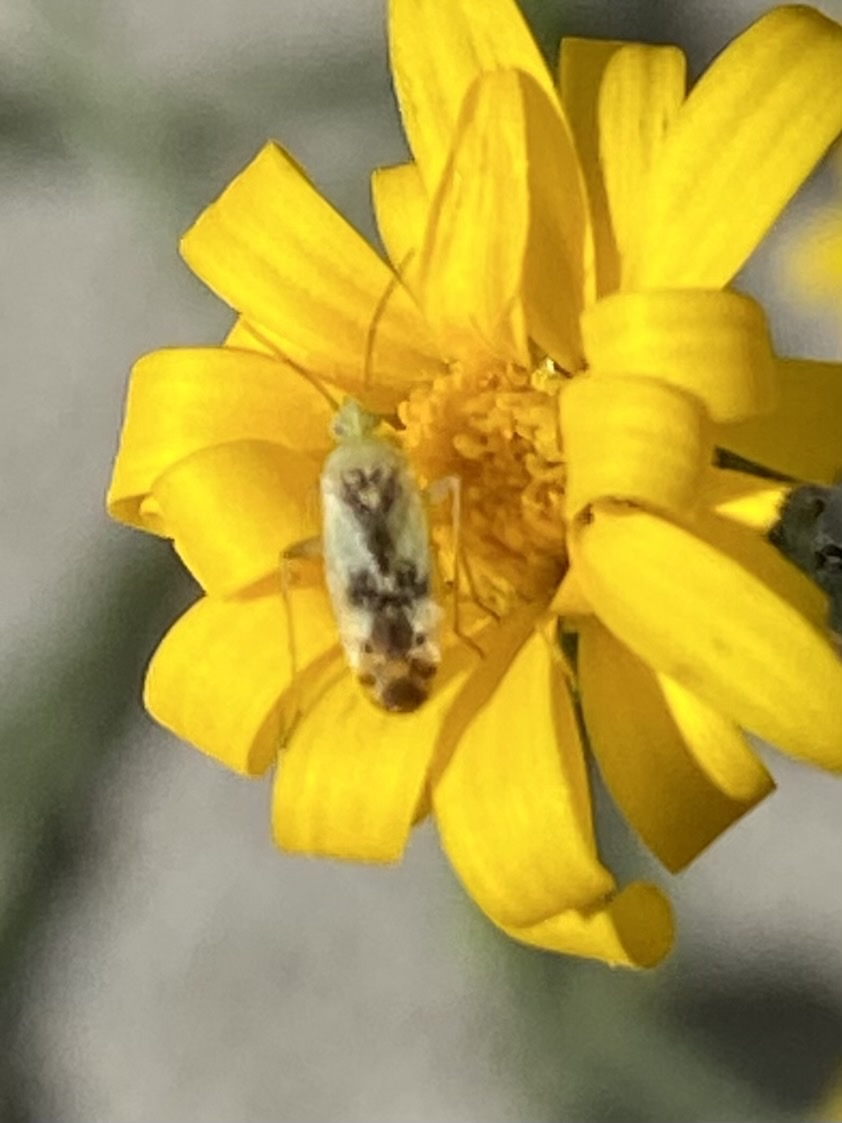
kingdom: Animalia
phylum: Arthropoda
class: Insecta
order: Hemiptera
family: Miridae
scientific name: Miridae
